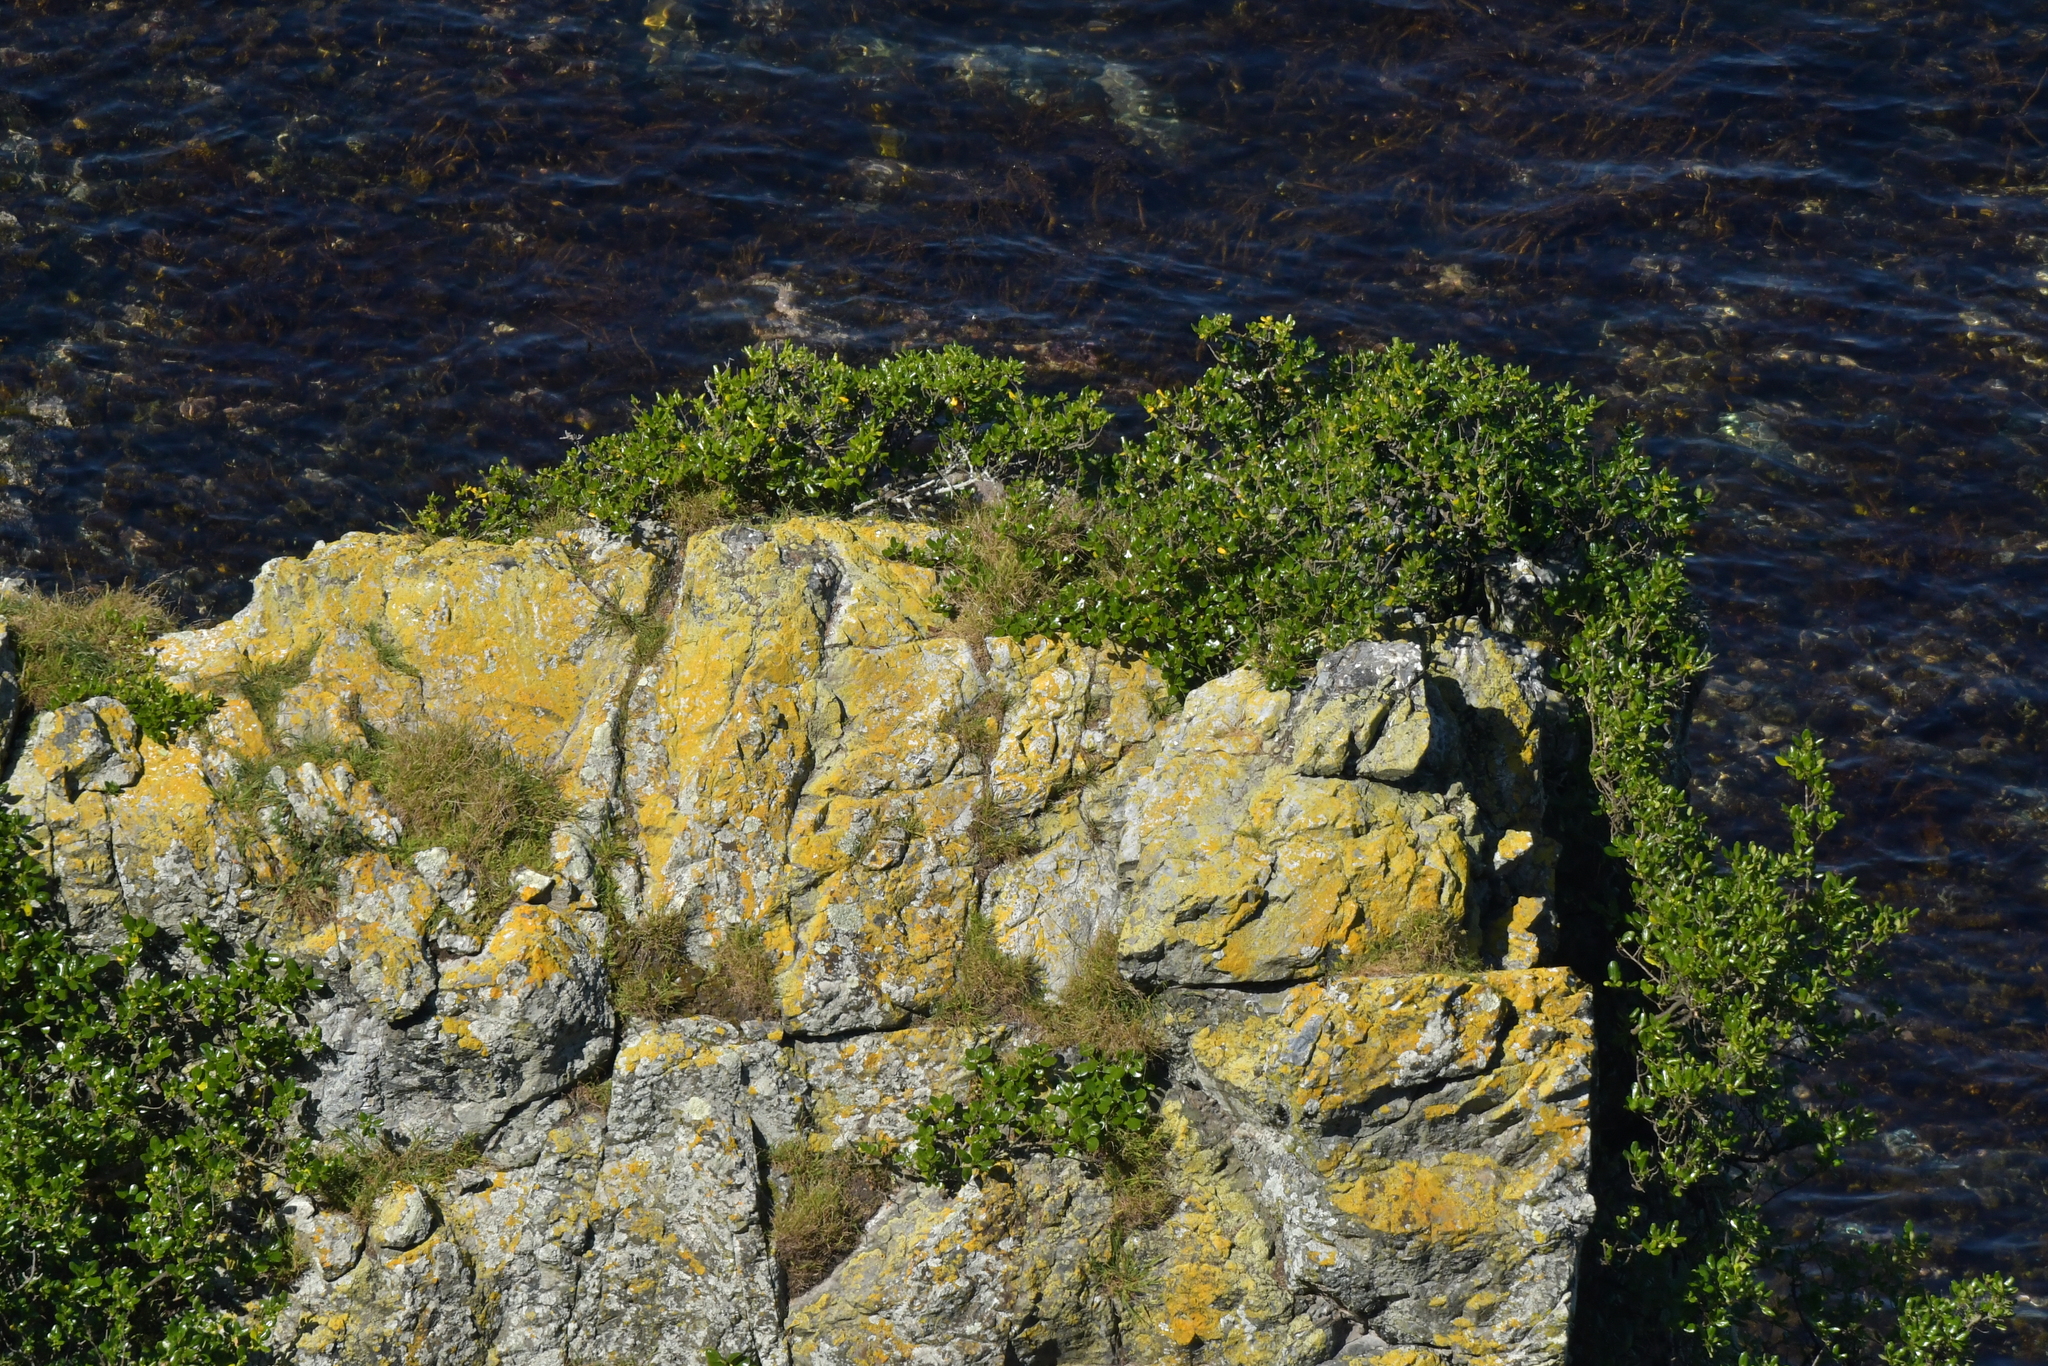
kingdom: Plantae
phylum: Tracheophyta
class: Magnoliopsida
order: Gentianales
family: Rubiaceae
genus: Coprosma
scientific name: Coprosma repens
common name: Tree bedstraw
